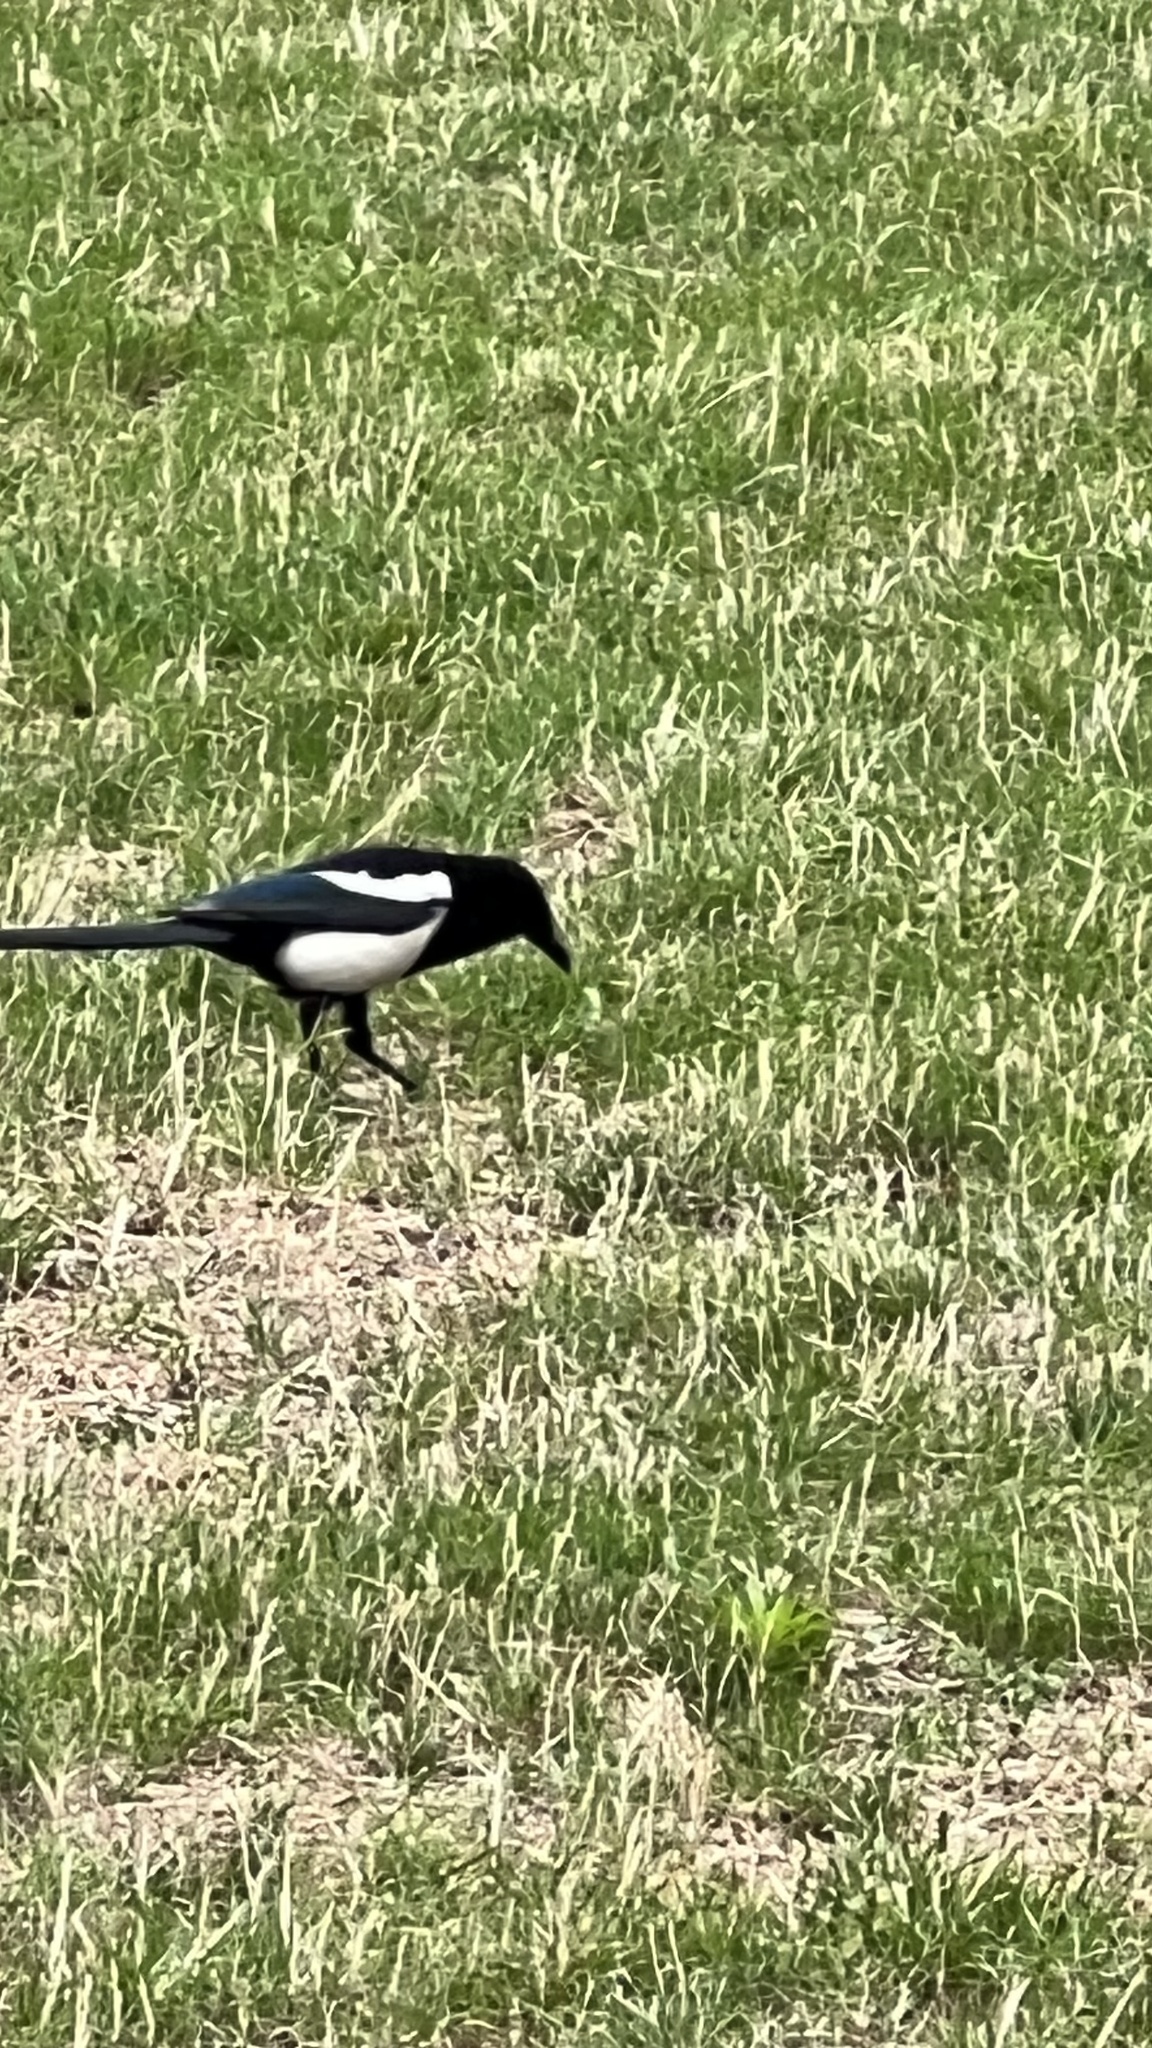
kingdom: Animalia
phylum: Chordata
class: Aves
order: Passeriformes
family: Corvidae
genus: Pica
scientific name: Pica pica
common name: Eurasian magpie
